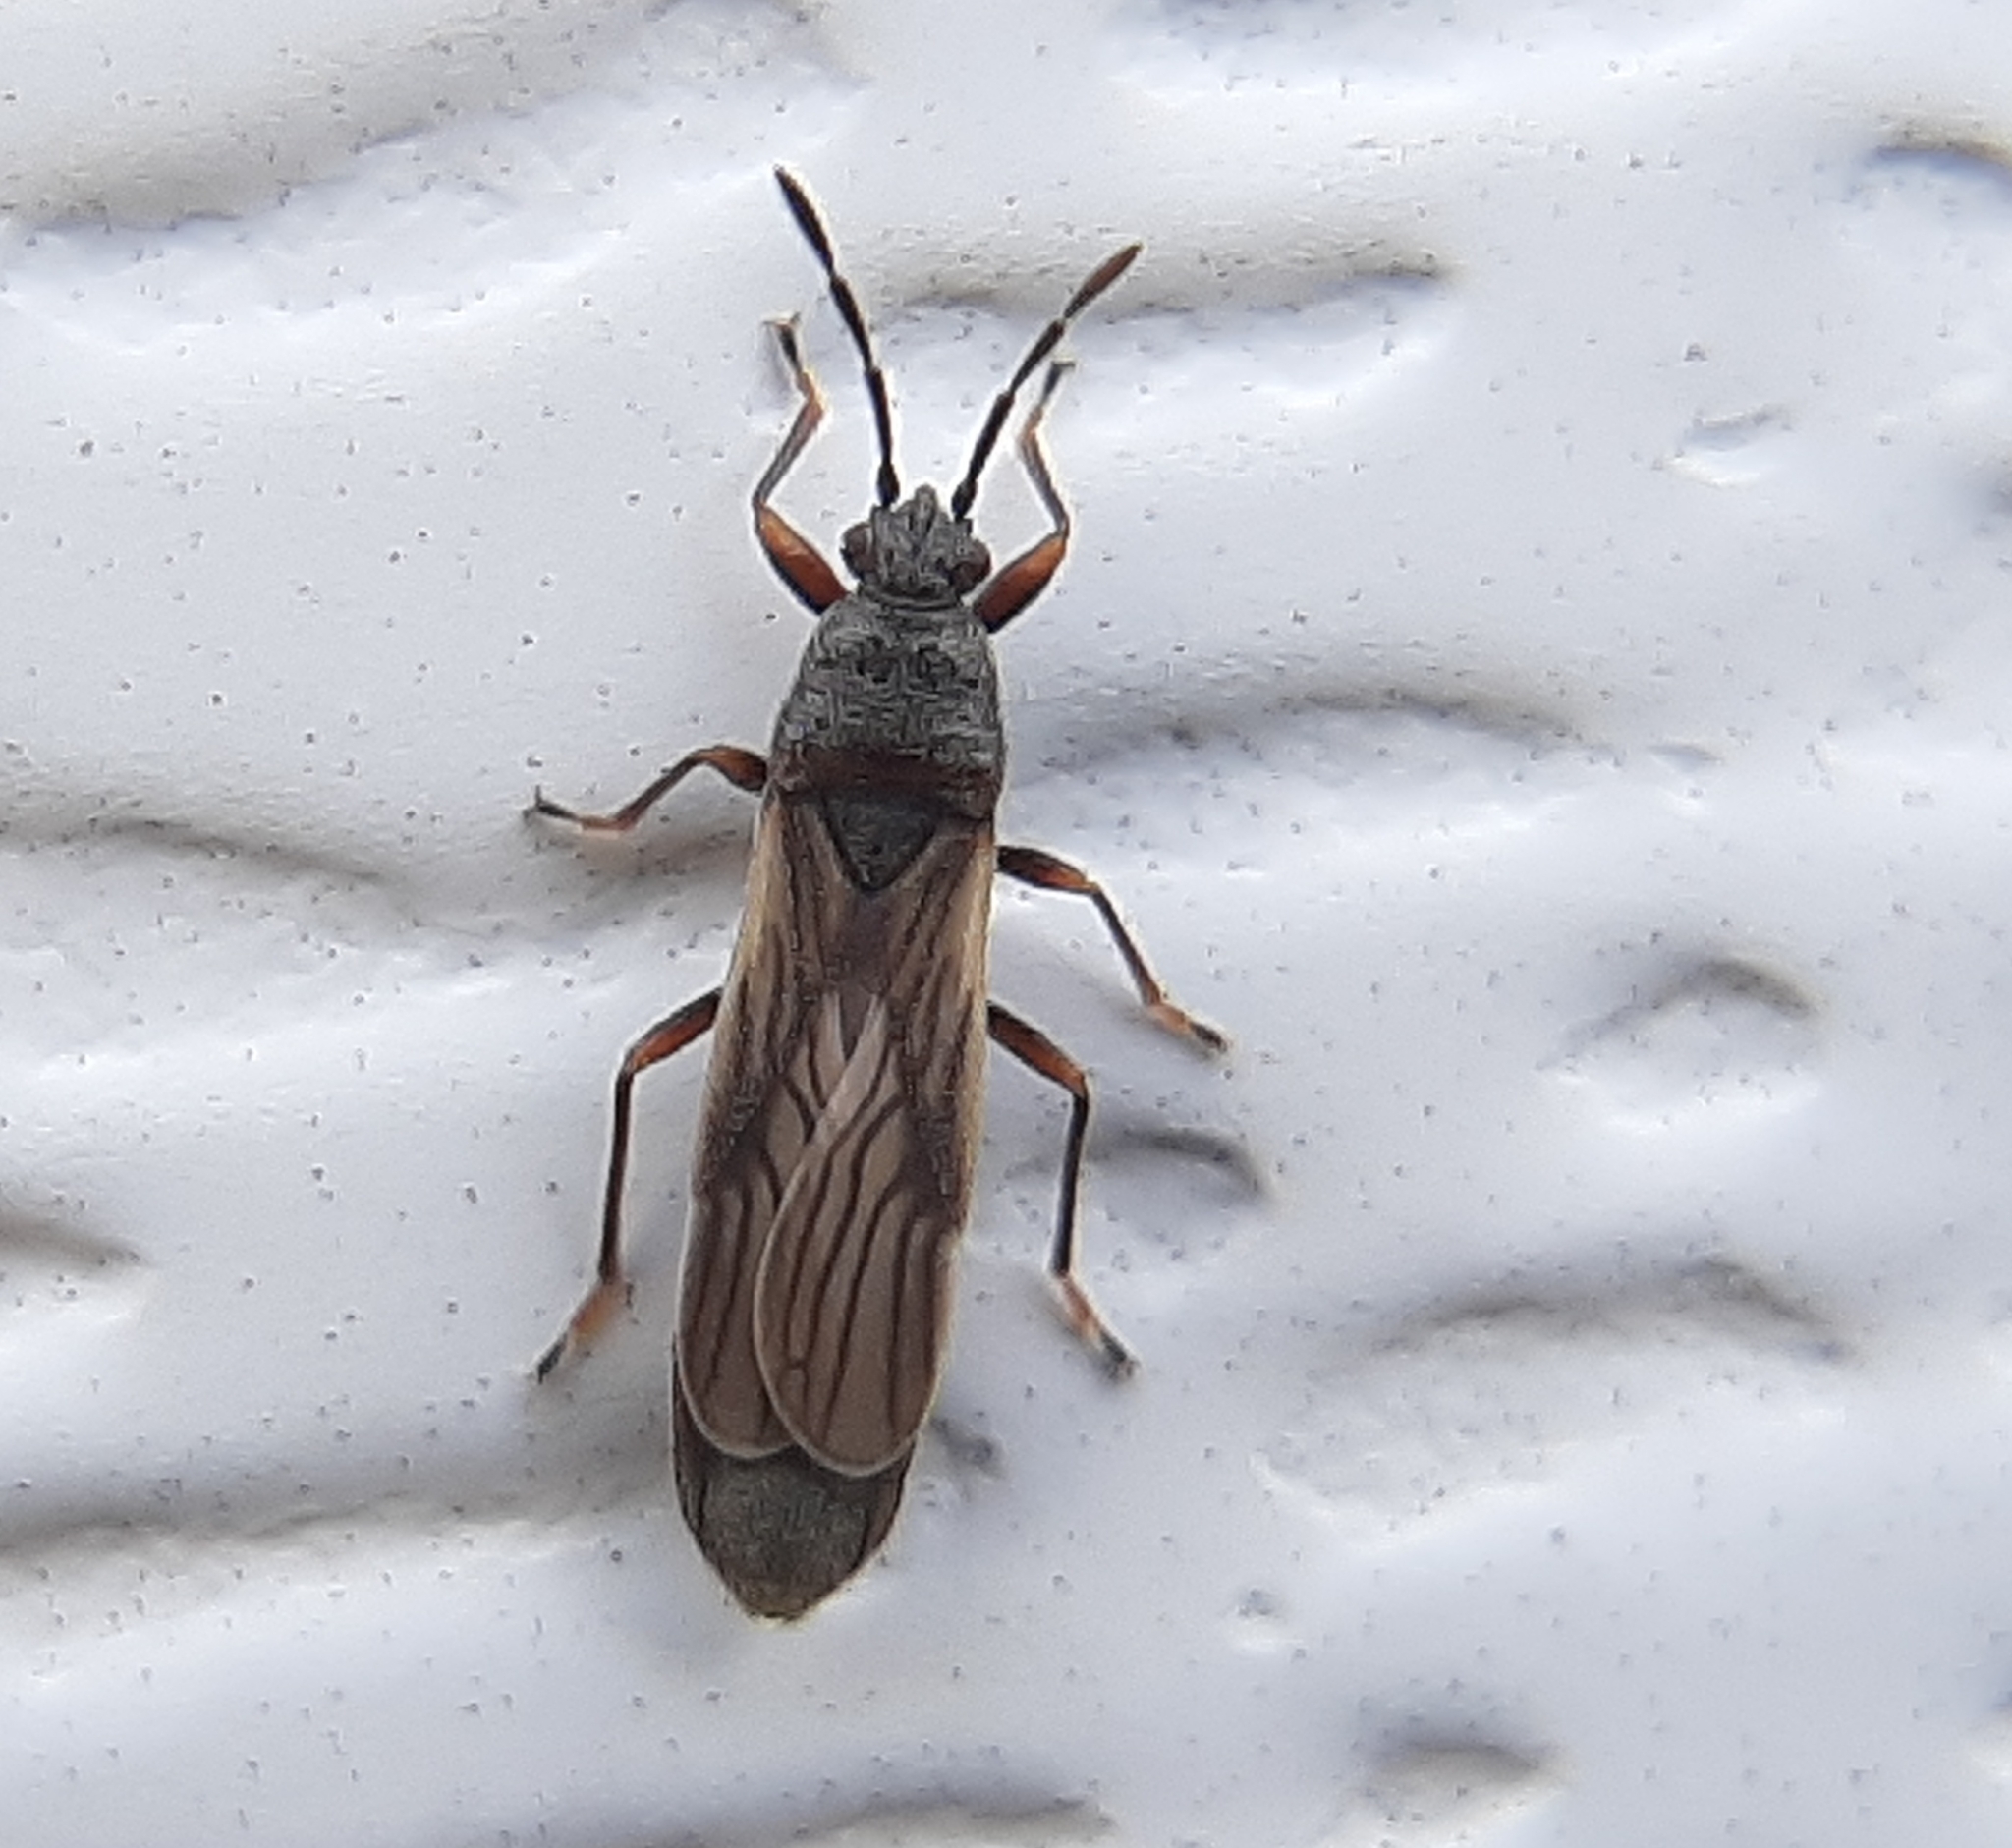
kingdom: Animalia
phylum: Arthropoda
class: Insecta
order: Hemiptera
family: Blissidae
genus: Ischnodemus
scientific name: Ischnodemus falicus
